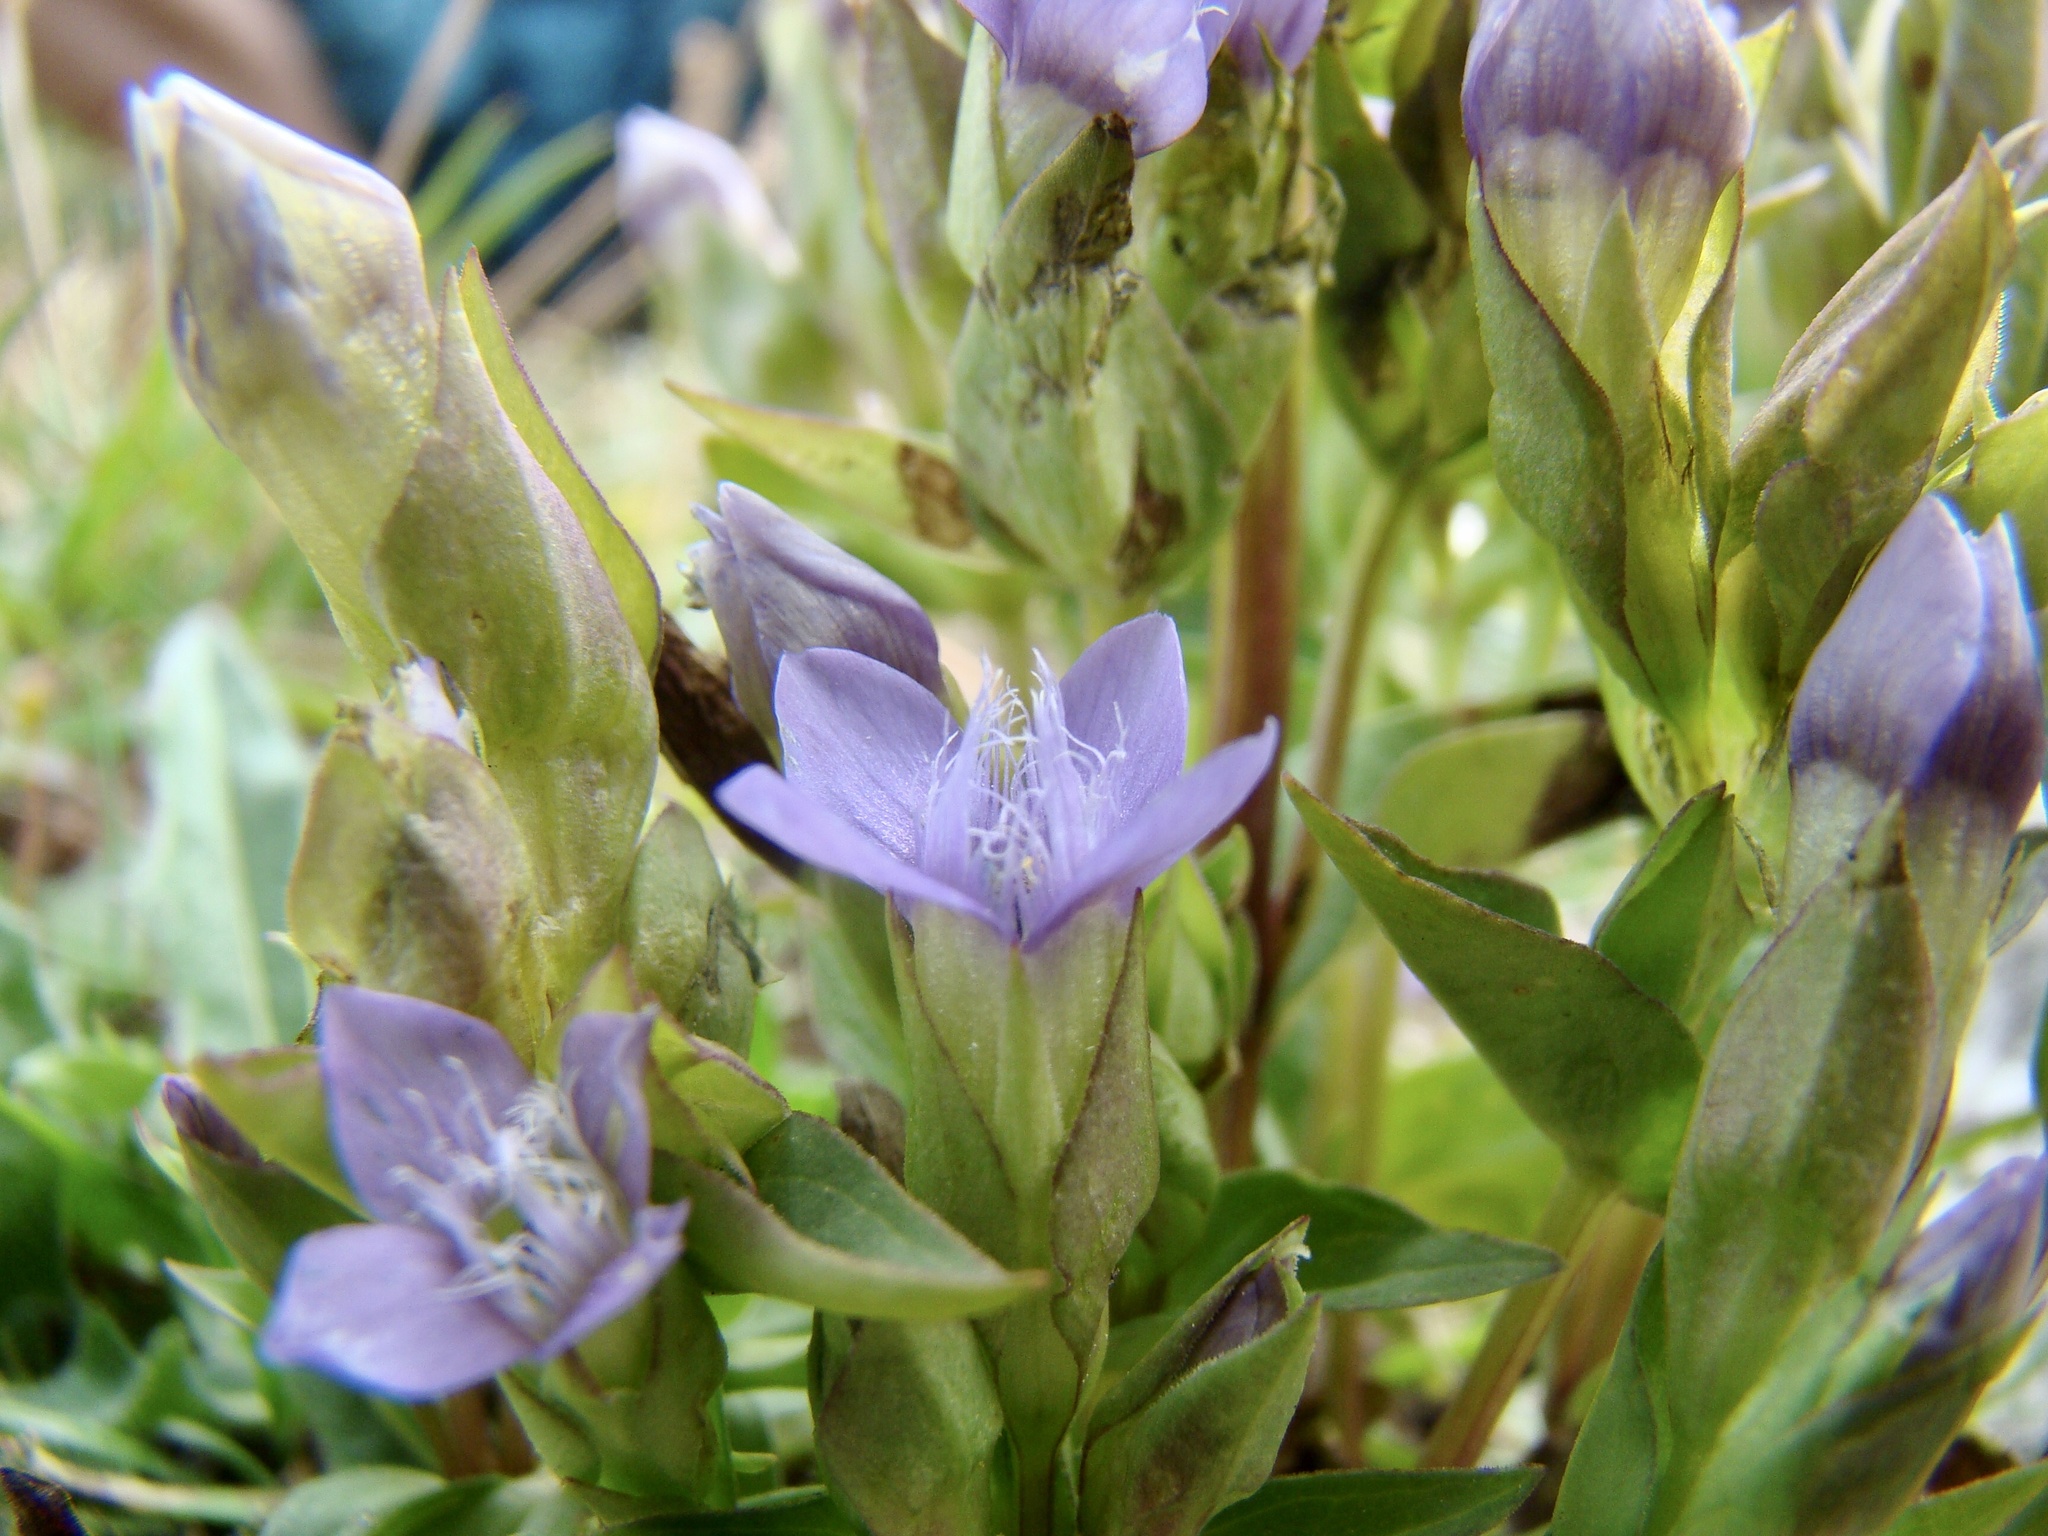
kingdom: Plantae
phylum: Tracheophyta
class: Magnoliopsida
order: Gentianales
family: Gentianaceae
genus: Gentianella
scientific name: Gentianella campestris
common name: Field gentian
